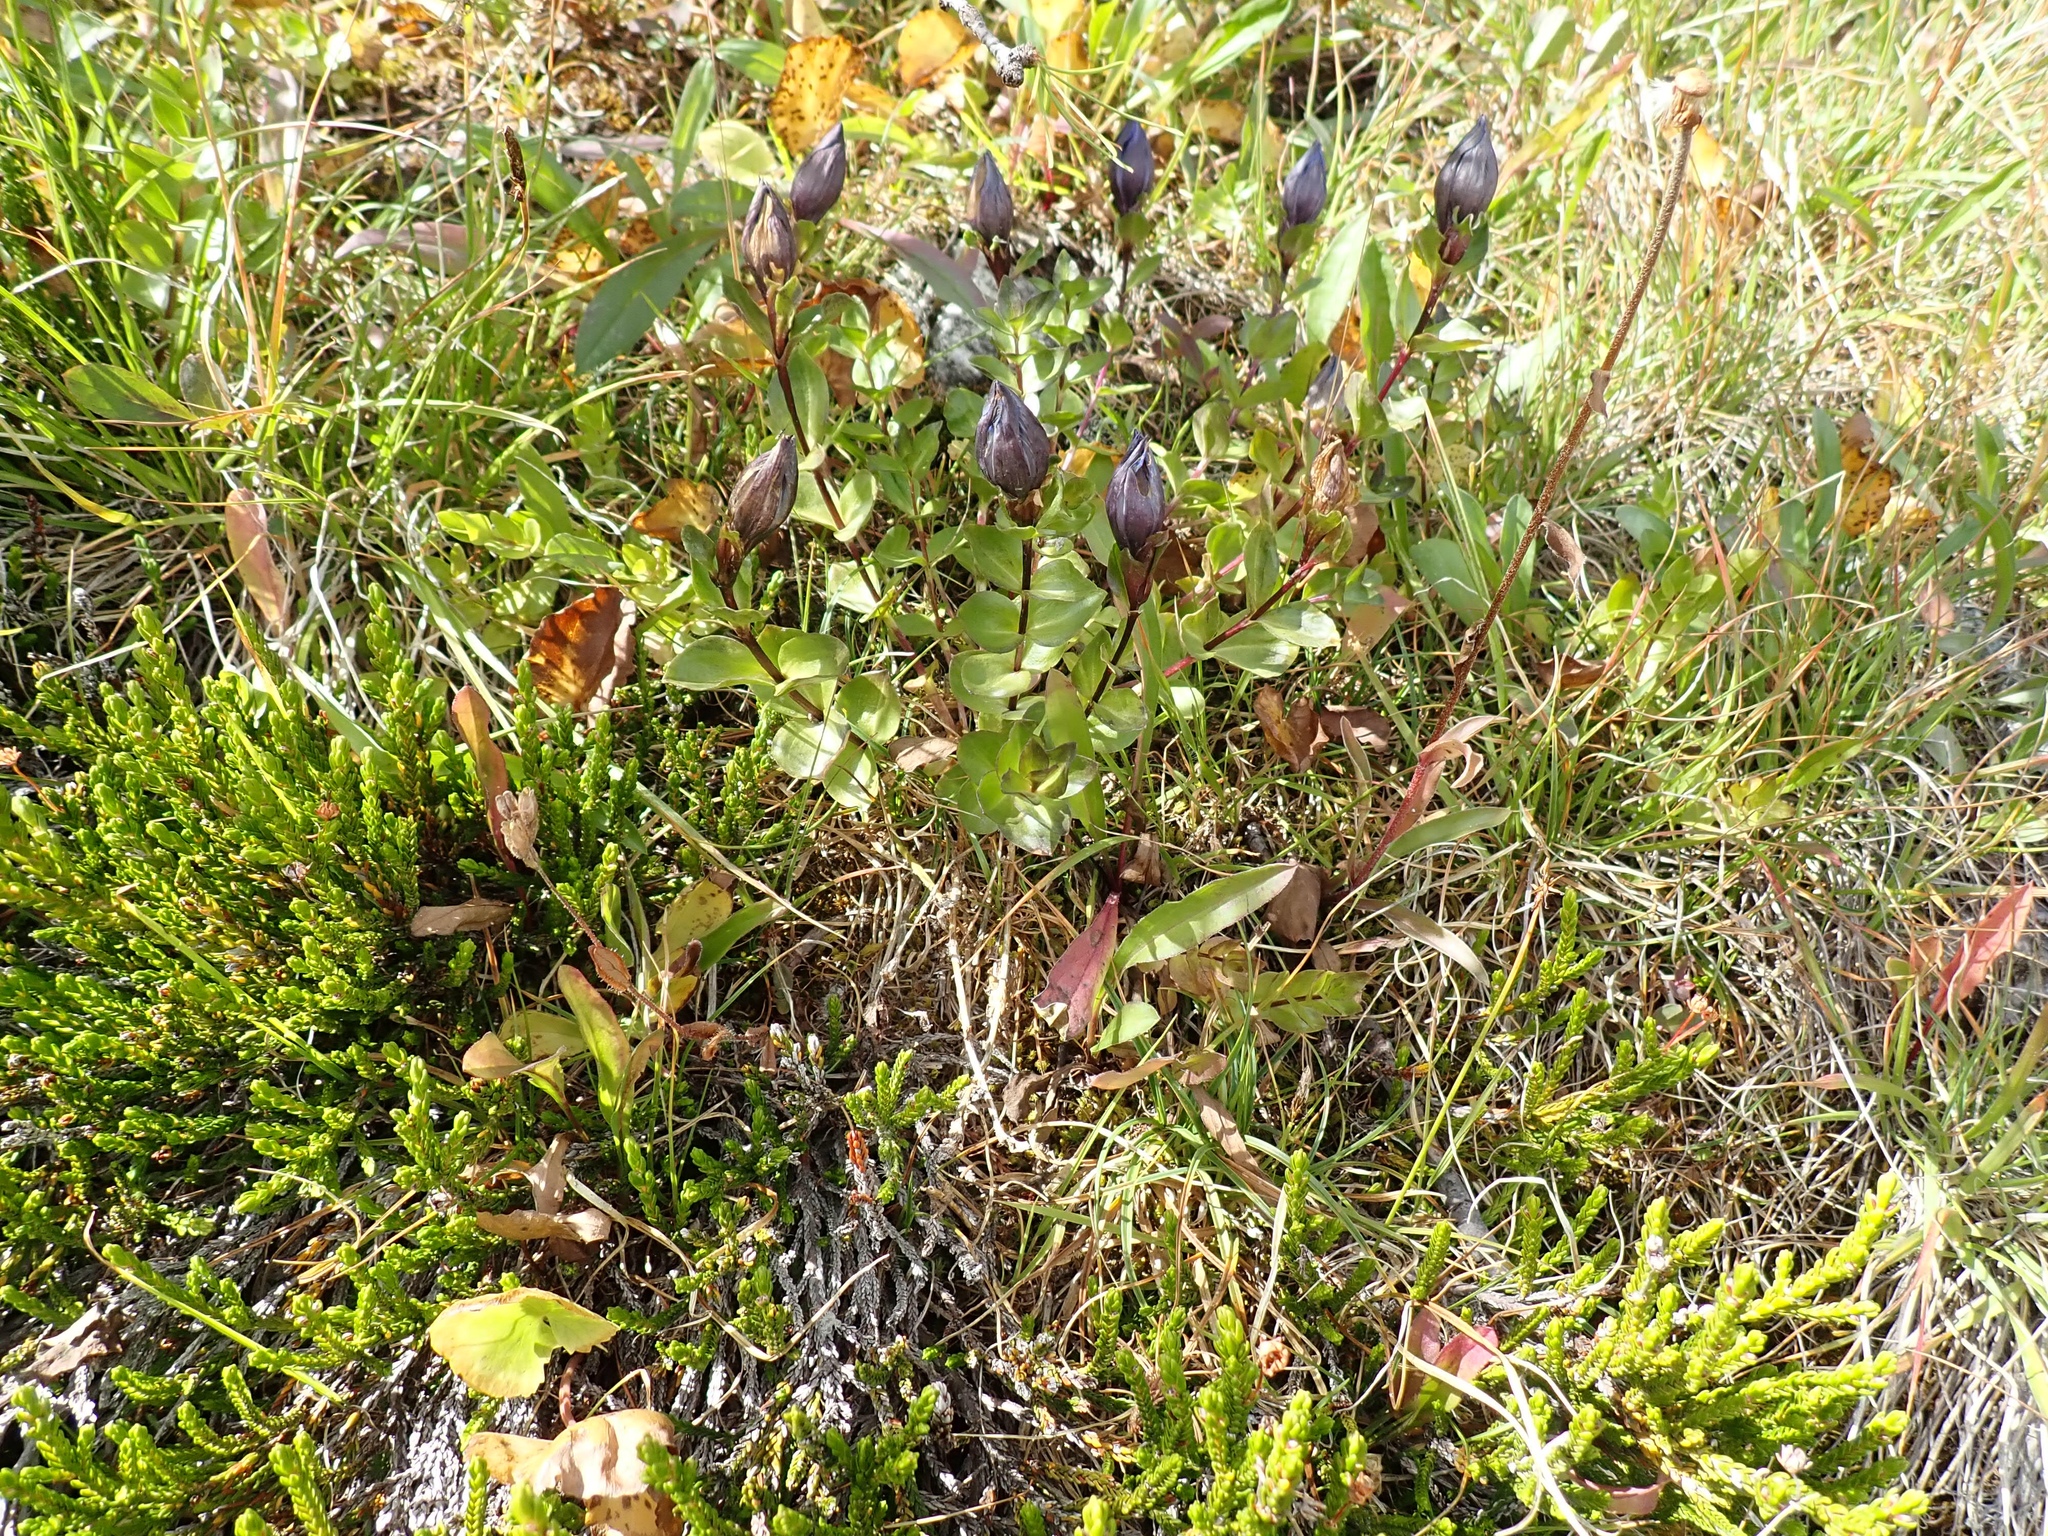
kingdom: Plantae
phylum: Tracheophyta
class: Magnoliopsida
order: Gentianales
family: Gentianaceae
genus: Gentiana
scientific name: Gentiana calycosa
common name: Rainier pleated gentian
